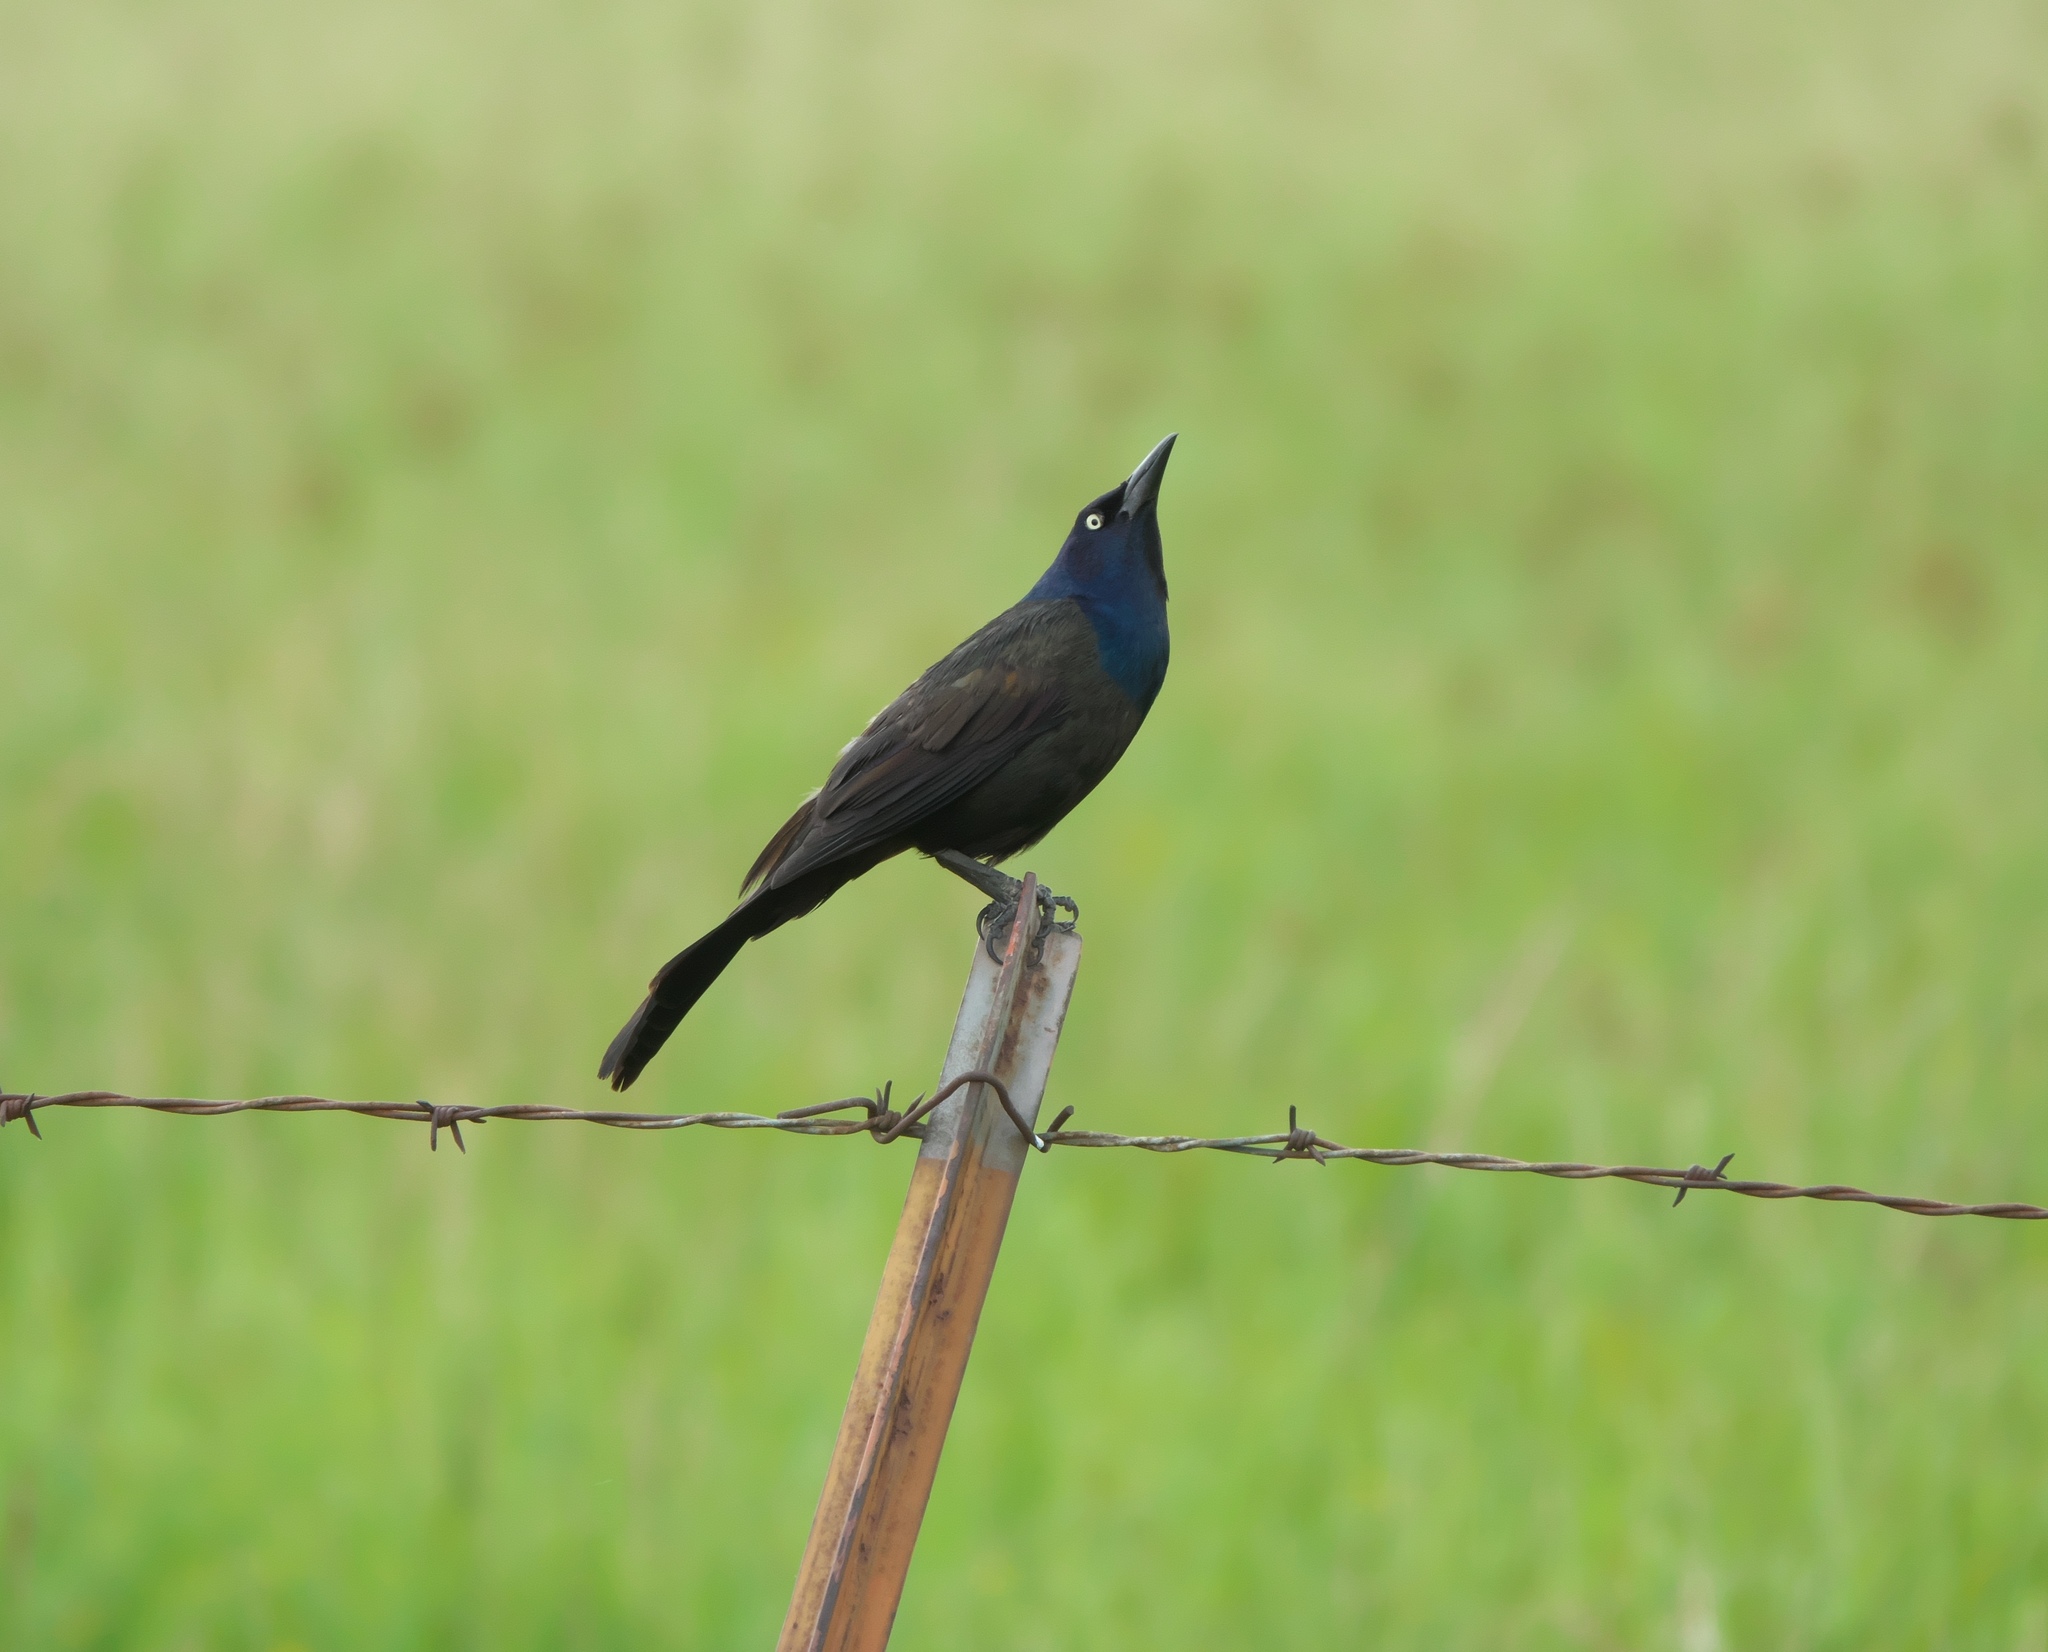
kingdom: Animalia
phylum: Chordata
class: Aves
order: Passeriformes
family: Icteridae
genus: Quiscalus
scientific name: Quiscalus quiscula
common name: Common grackle
